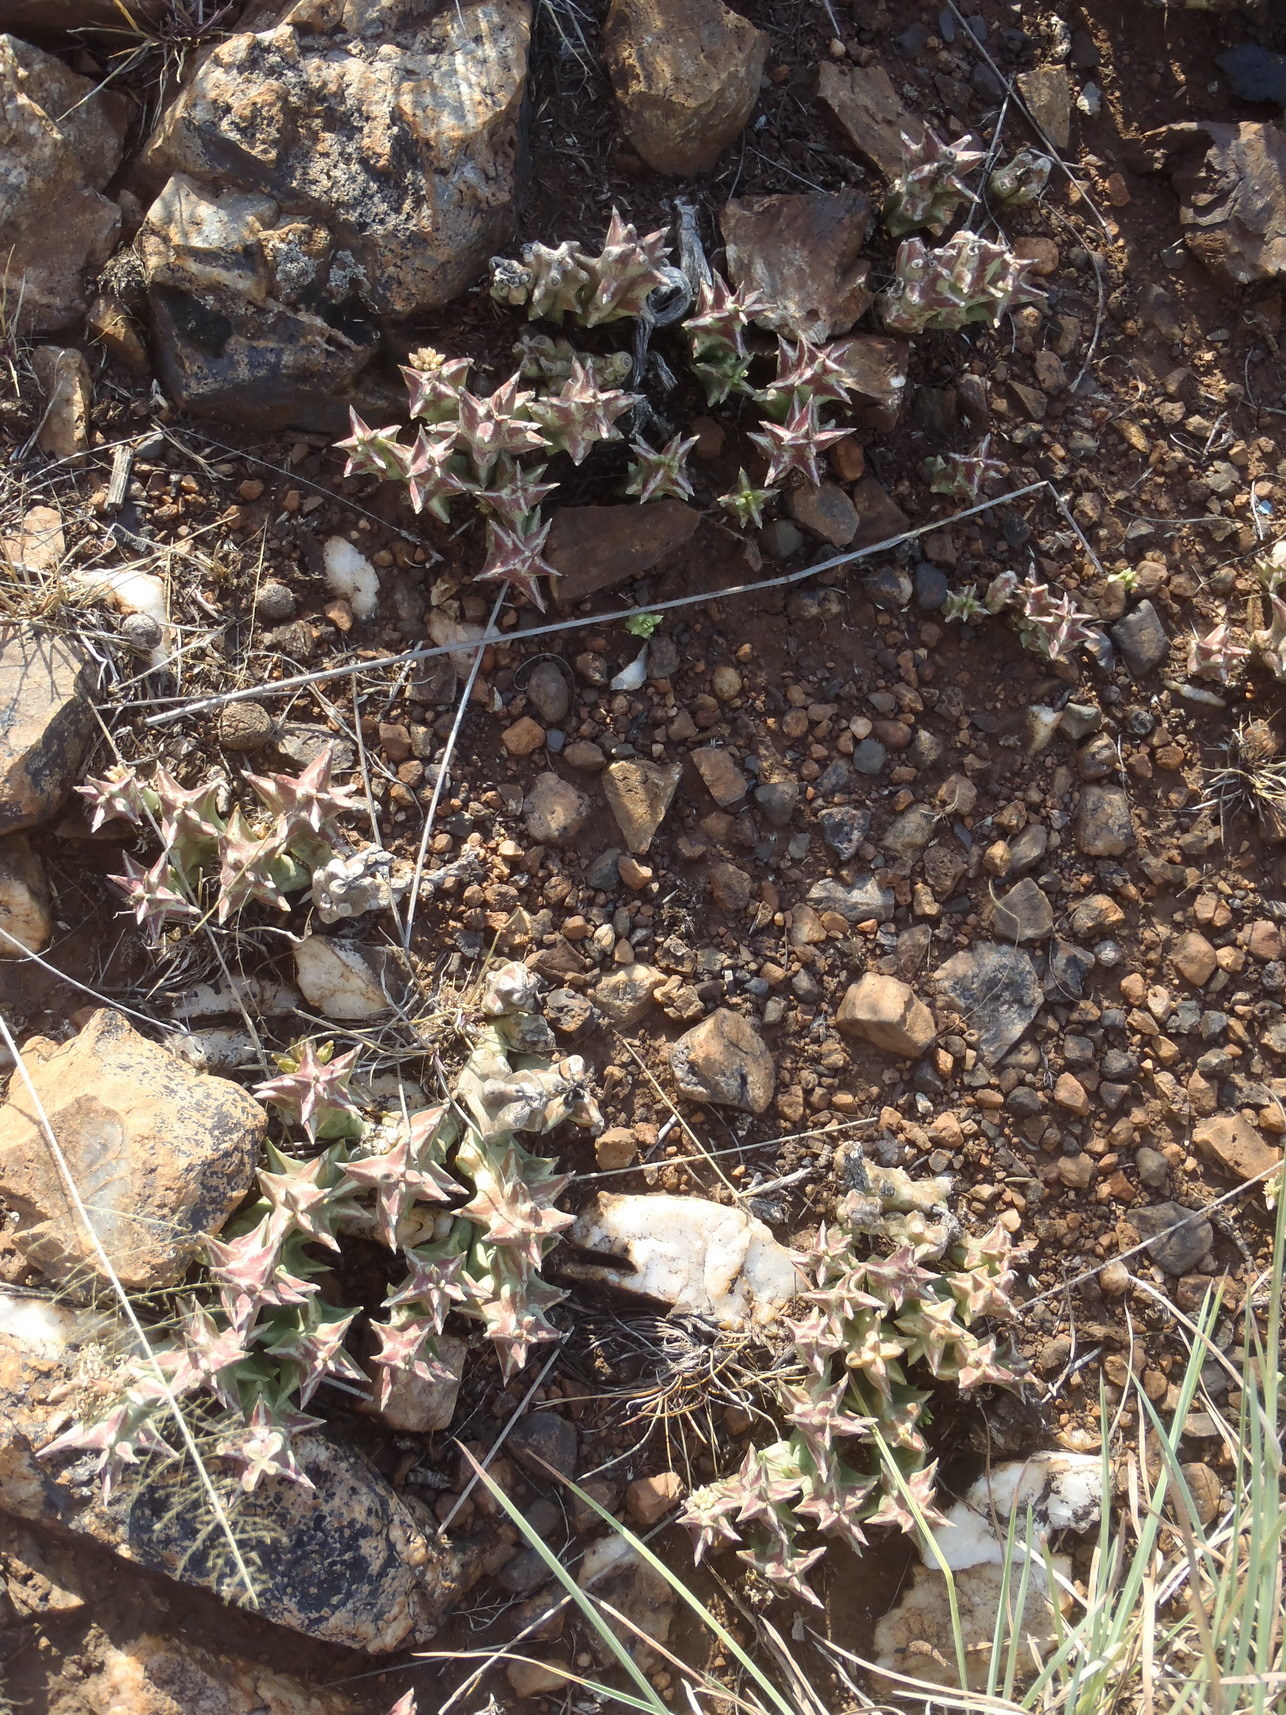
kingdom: Plantae
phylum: Tracheophyta
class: Magnoliopsida
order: Gentianales
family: Apocynaceae
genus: Ceropegia
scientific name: Ceropegia lutea
